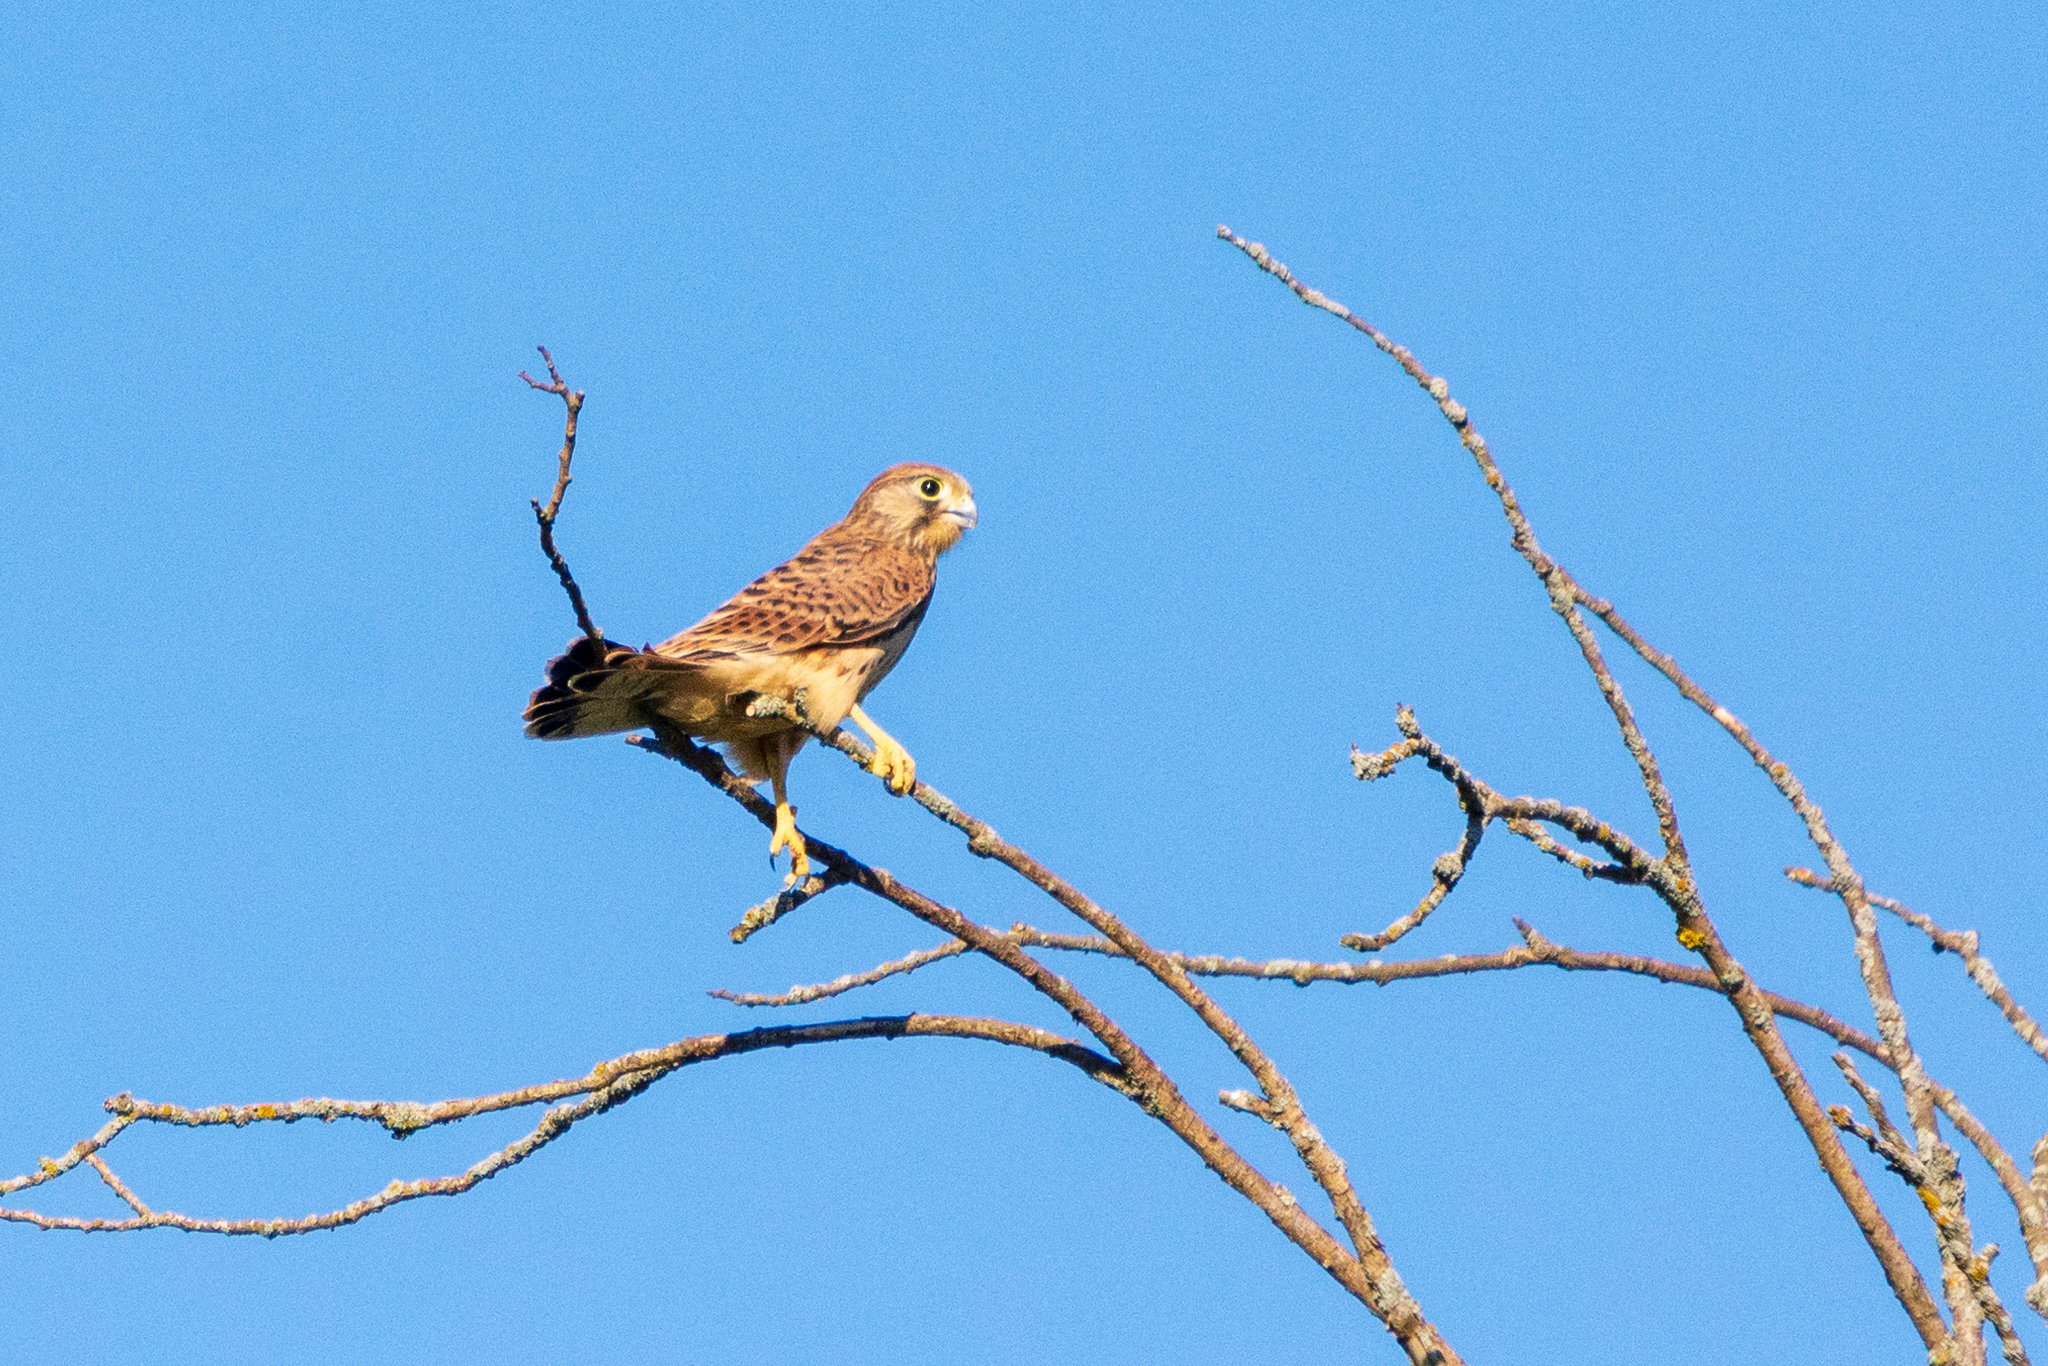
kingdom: Animalia
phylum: Chordata
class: Aves
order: Falconiformes
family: Falconidae
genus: Falco
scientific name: Falco tinnunculus
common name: Common kestrel
